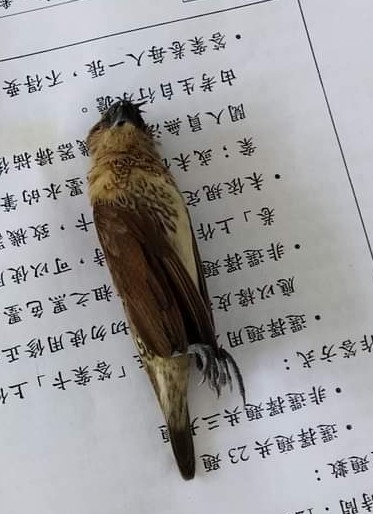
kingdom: Animalia
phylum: Chordata
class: Aves
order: Passeriformes
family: Estrildidae
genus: Lonchura
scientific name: Lonchura punctulata
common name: Scaly-breasted munia
